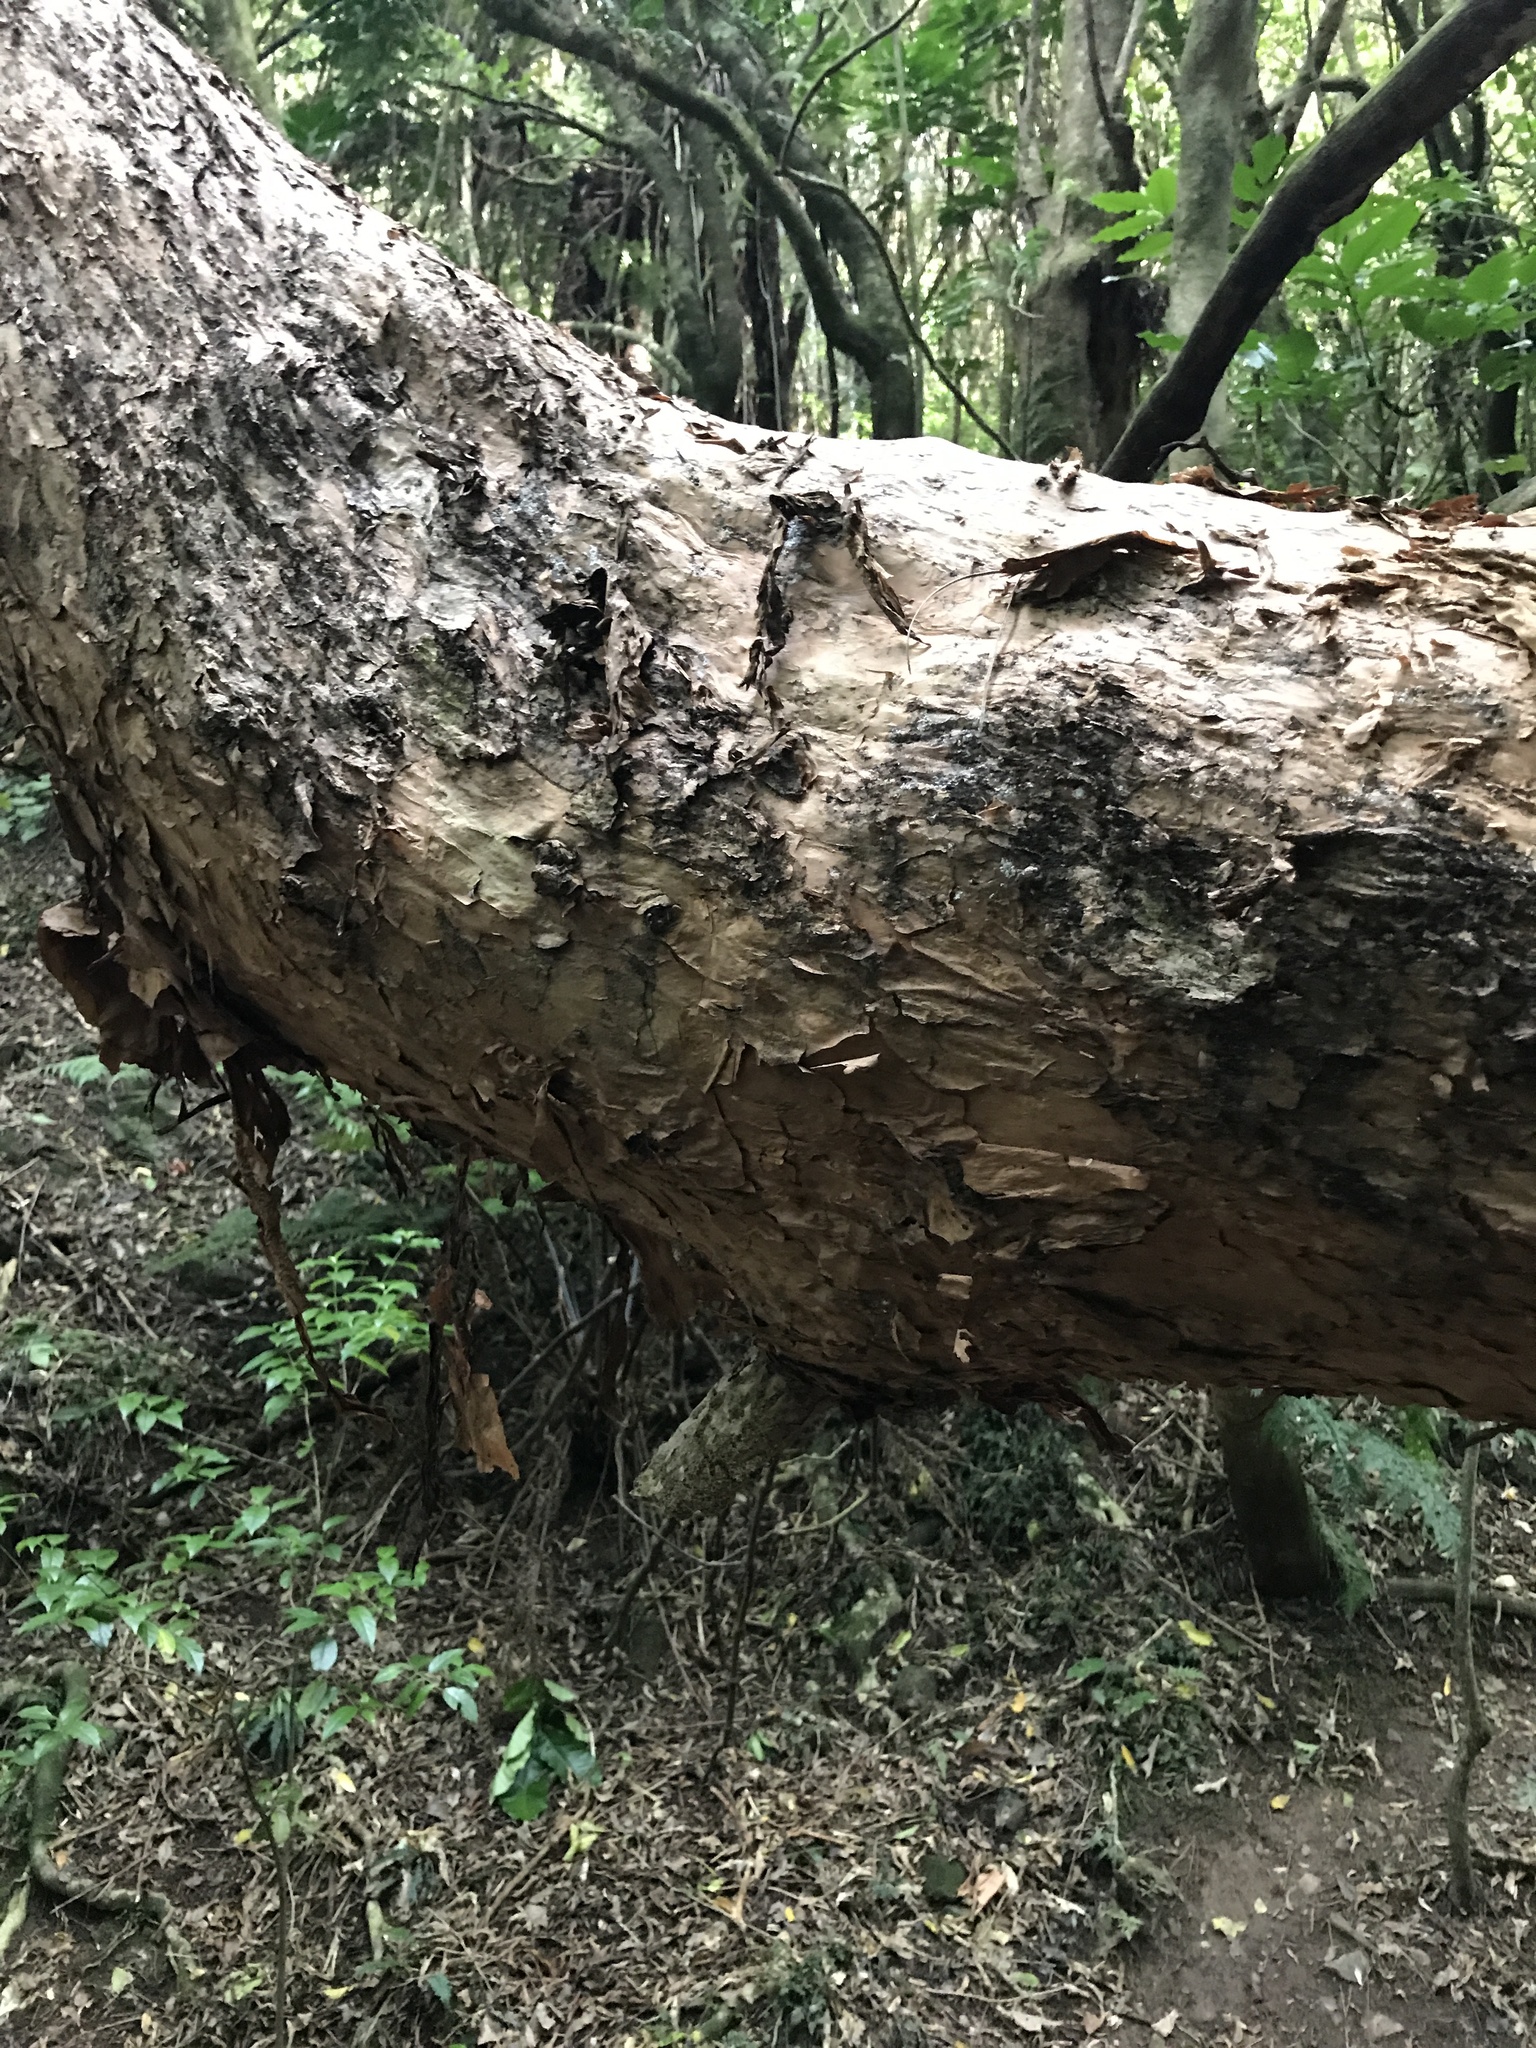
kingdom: Plantae
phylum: Tracheophyta
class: Magnoliopsida
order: Myrtales
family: Onagraceae
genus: Fuchsia
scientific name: Fuchsia excorticata
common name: Tree fuchsia
